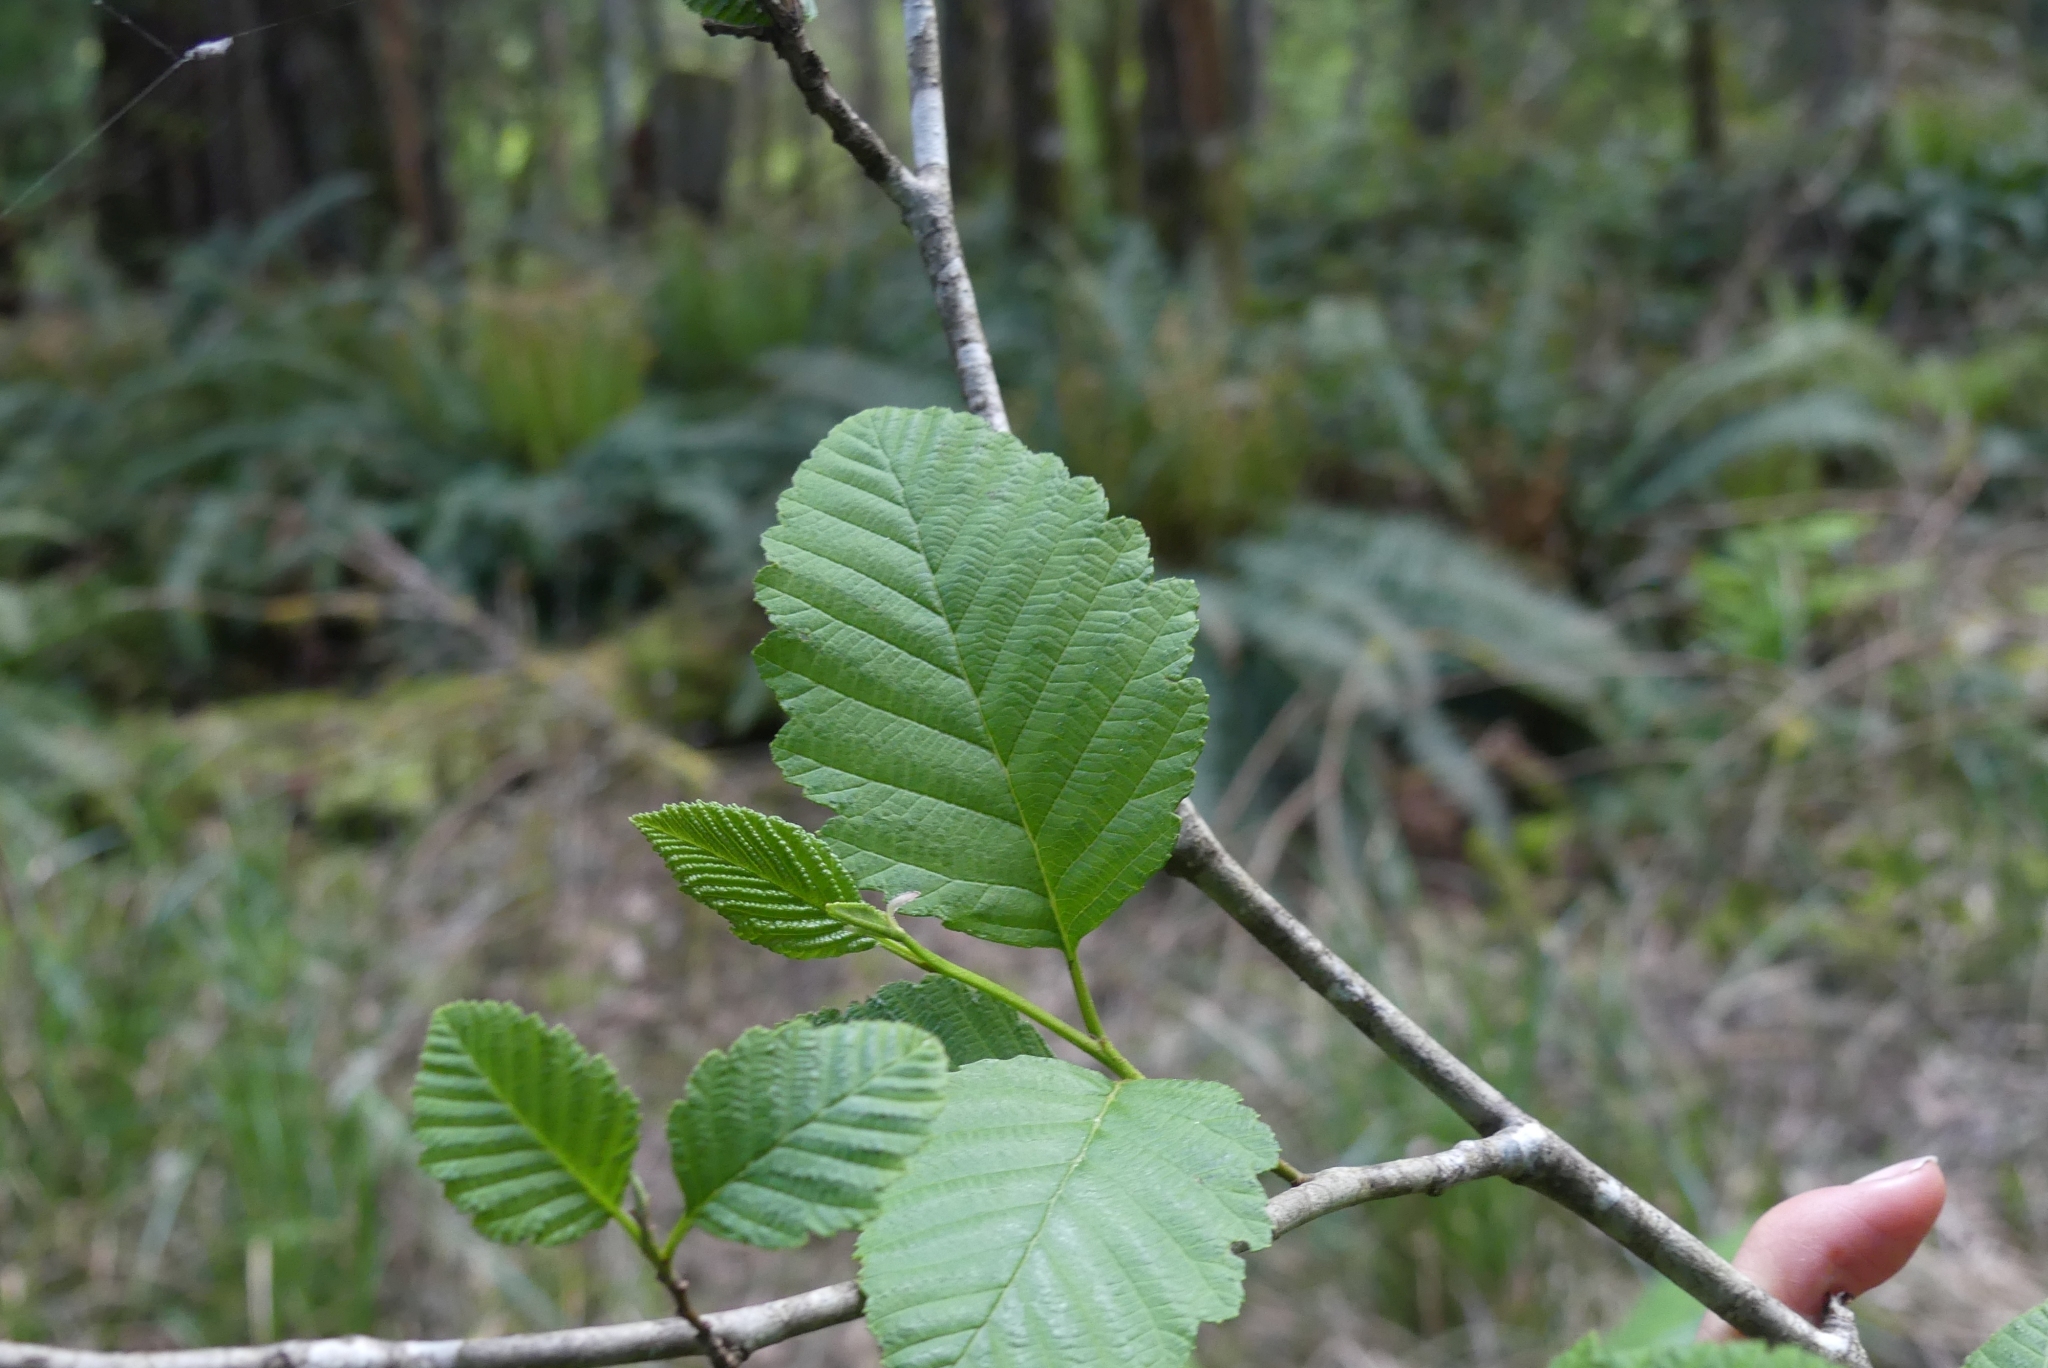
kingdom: Plantae
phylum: Tracheophyta
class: Magnoliopsida
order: Fagales
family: Betulaceae
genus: Alnus
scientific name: Alnus rubra
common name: Red alder
